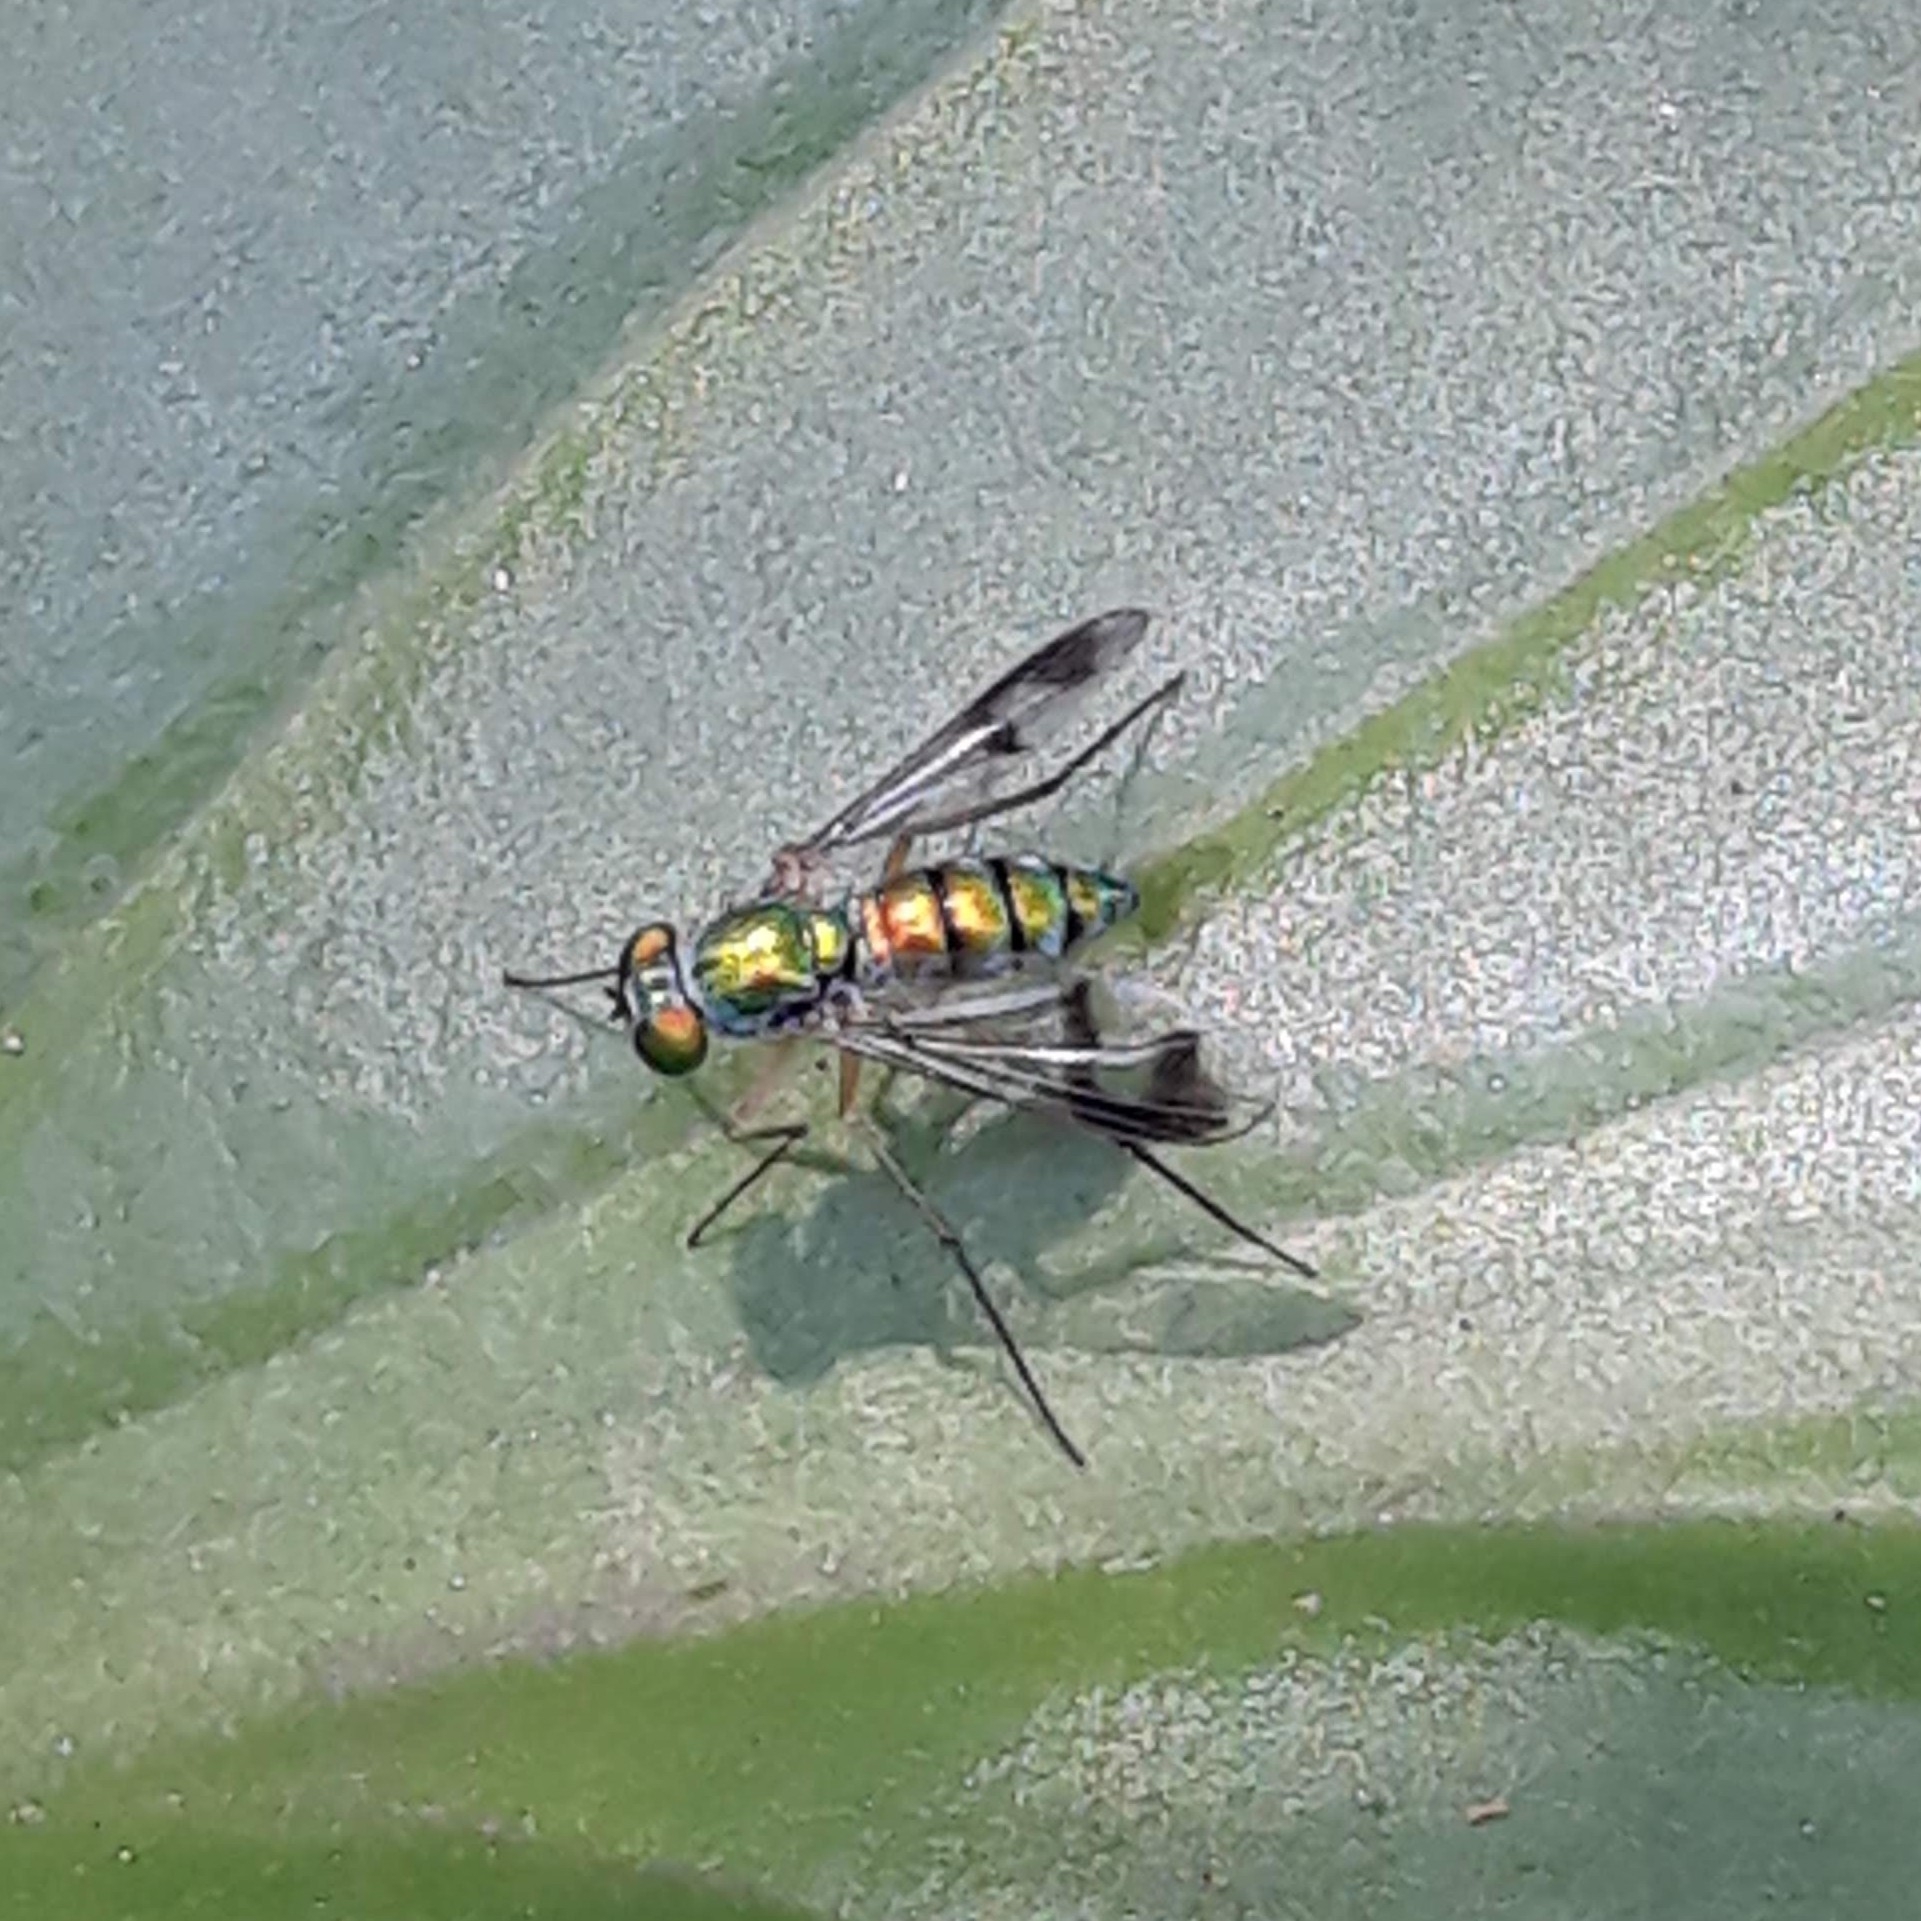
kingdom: Animalia
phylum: Arthropoda
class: Insecta
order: Diptera
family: Dolichopodidae
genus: Condylostylus
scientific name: Condylostylus
